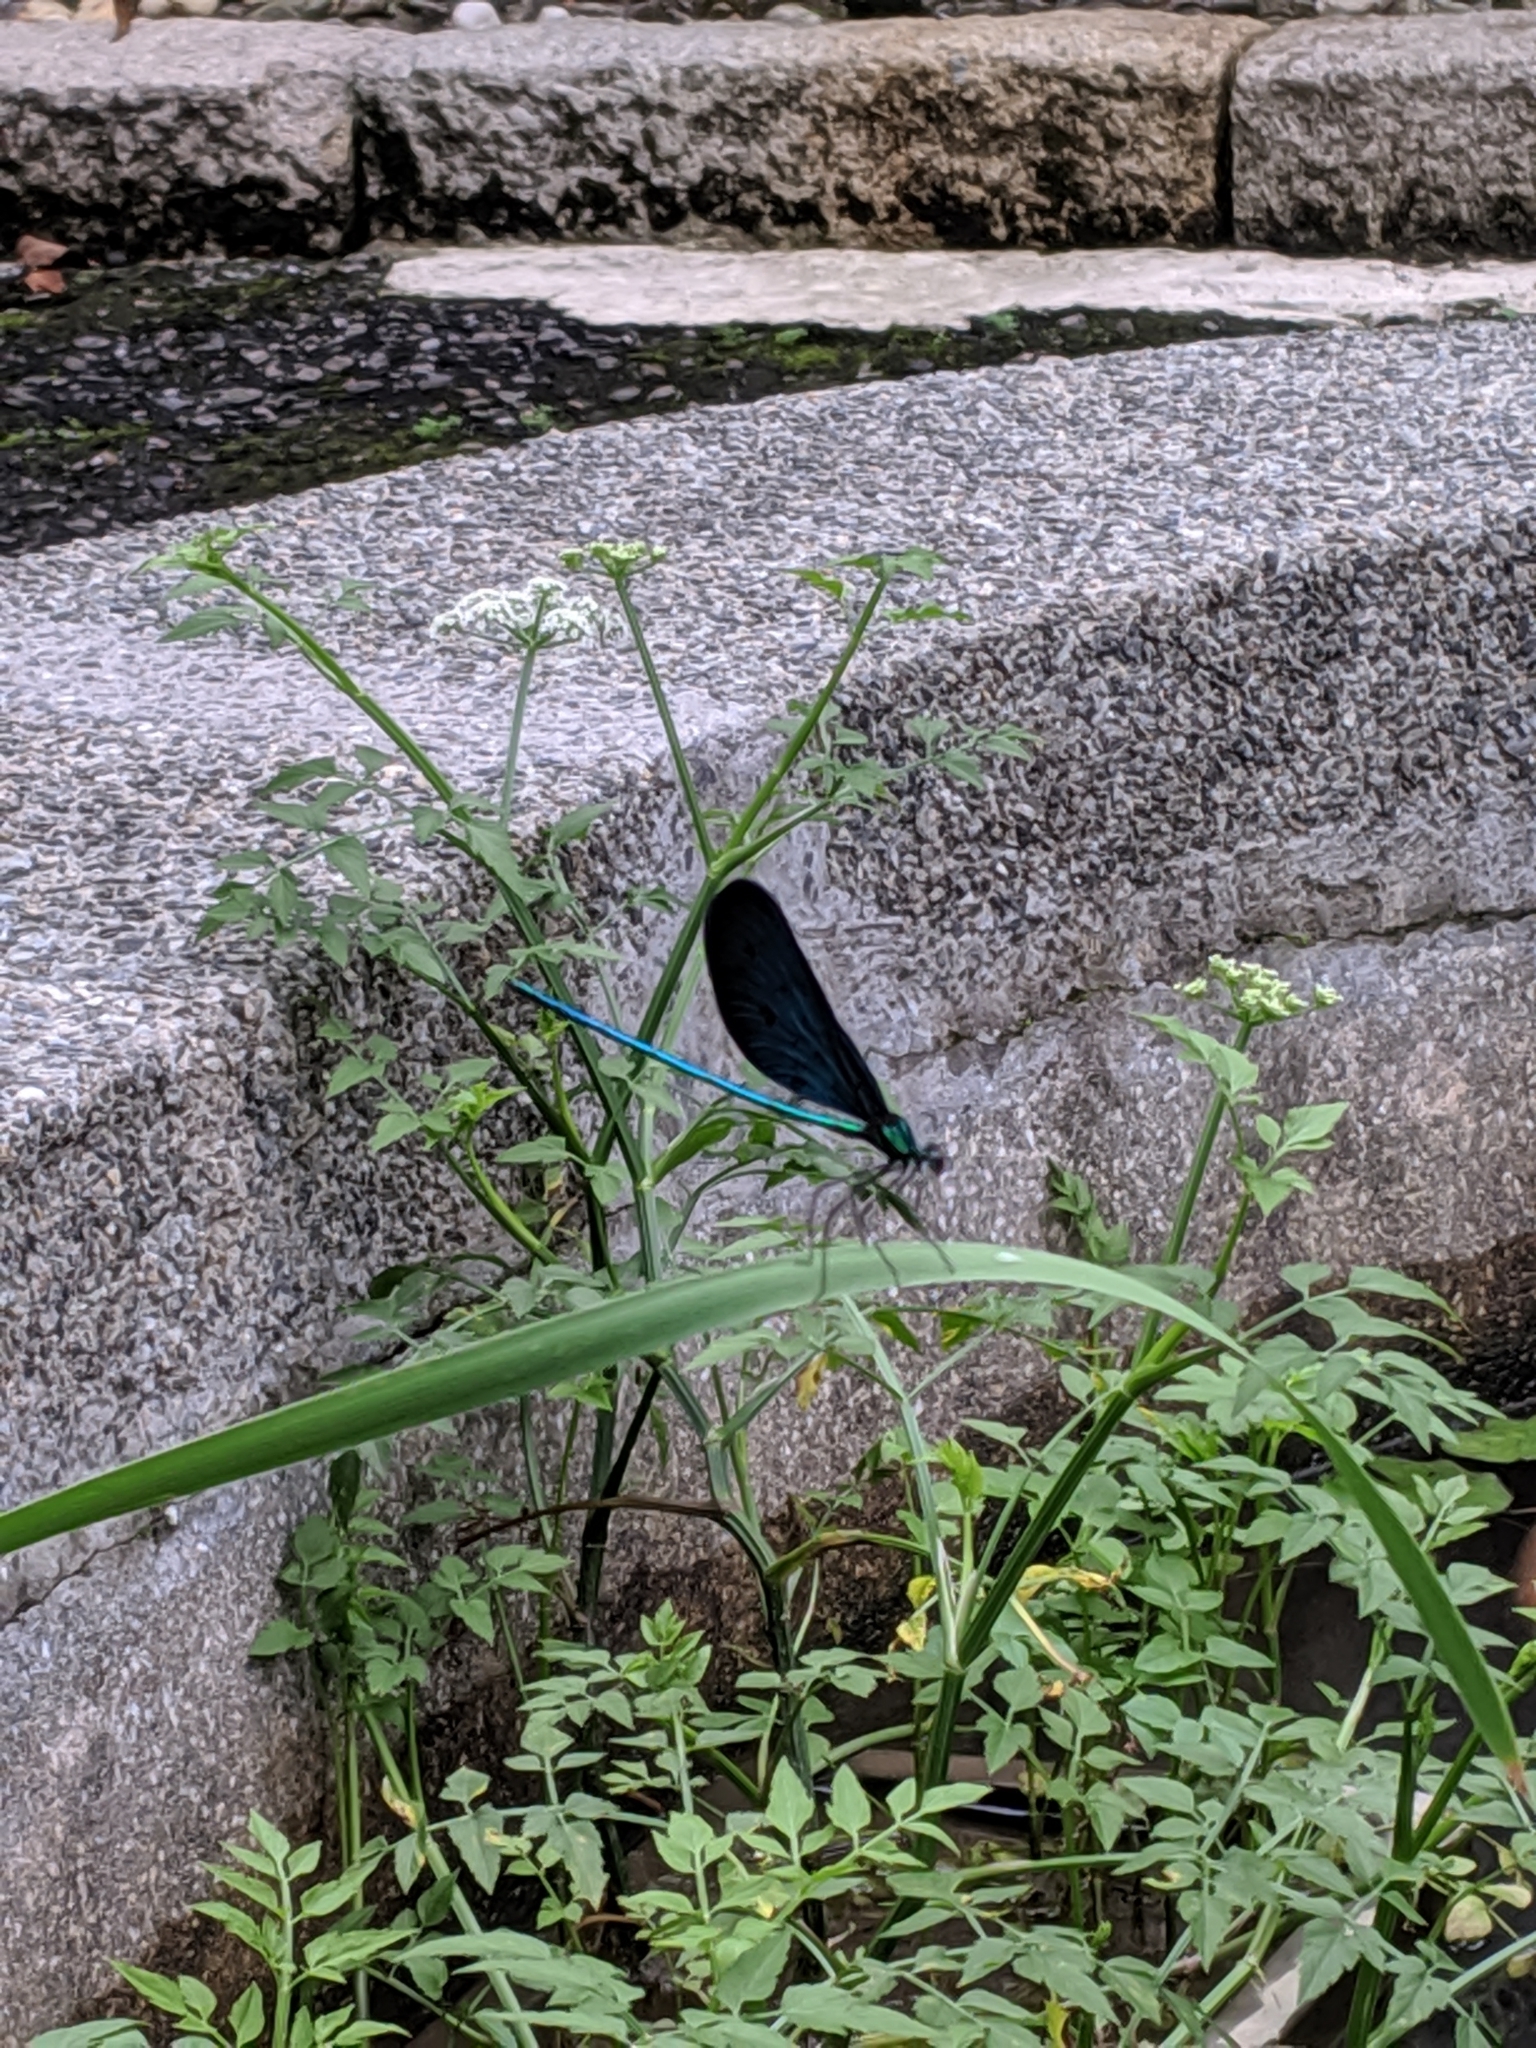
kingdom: Animalia
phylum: Arthropoda
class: Insecta
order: Odonata
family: Calopterygidae
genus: Matrona
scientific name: Matrona cyanoptera
